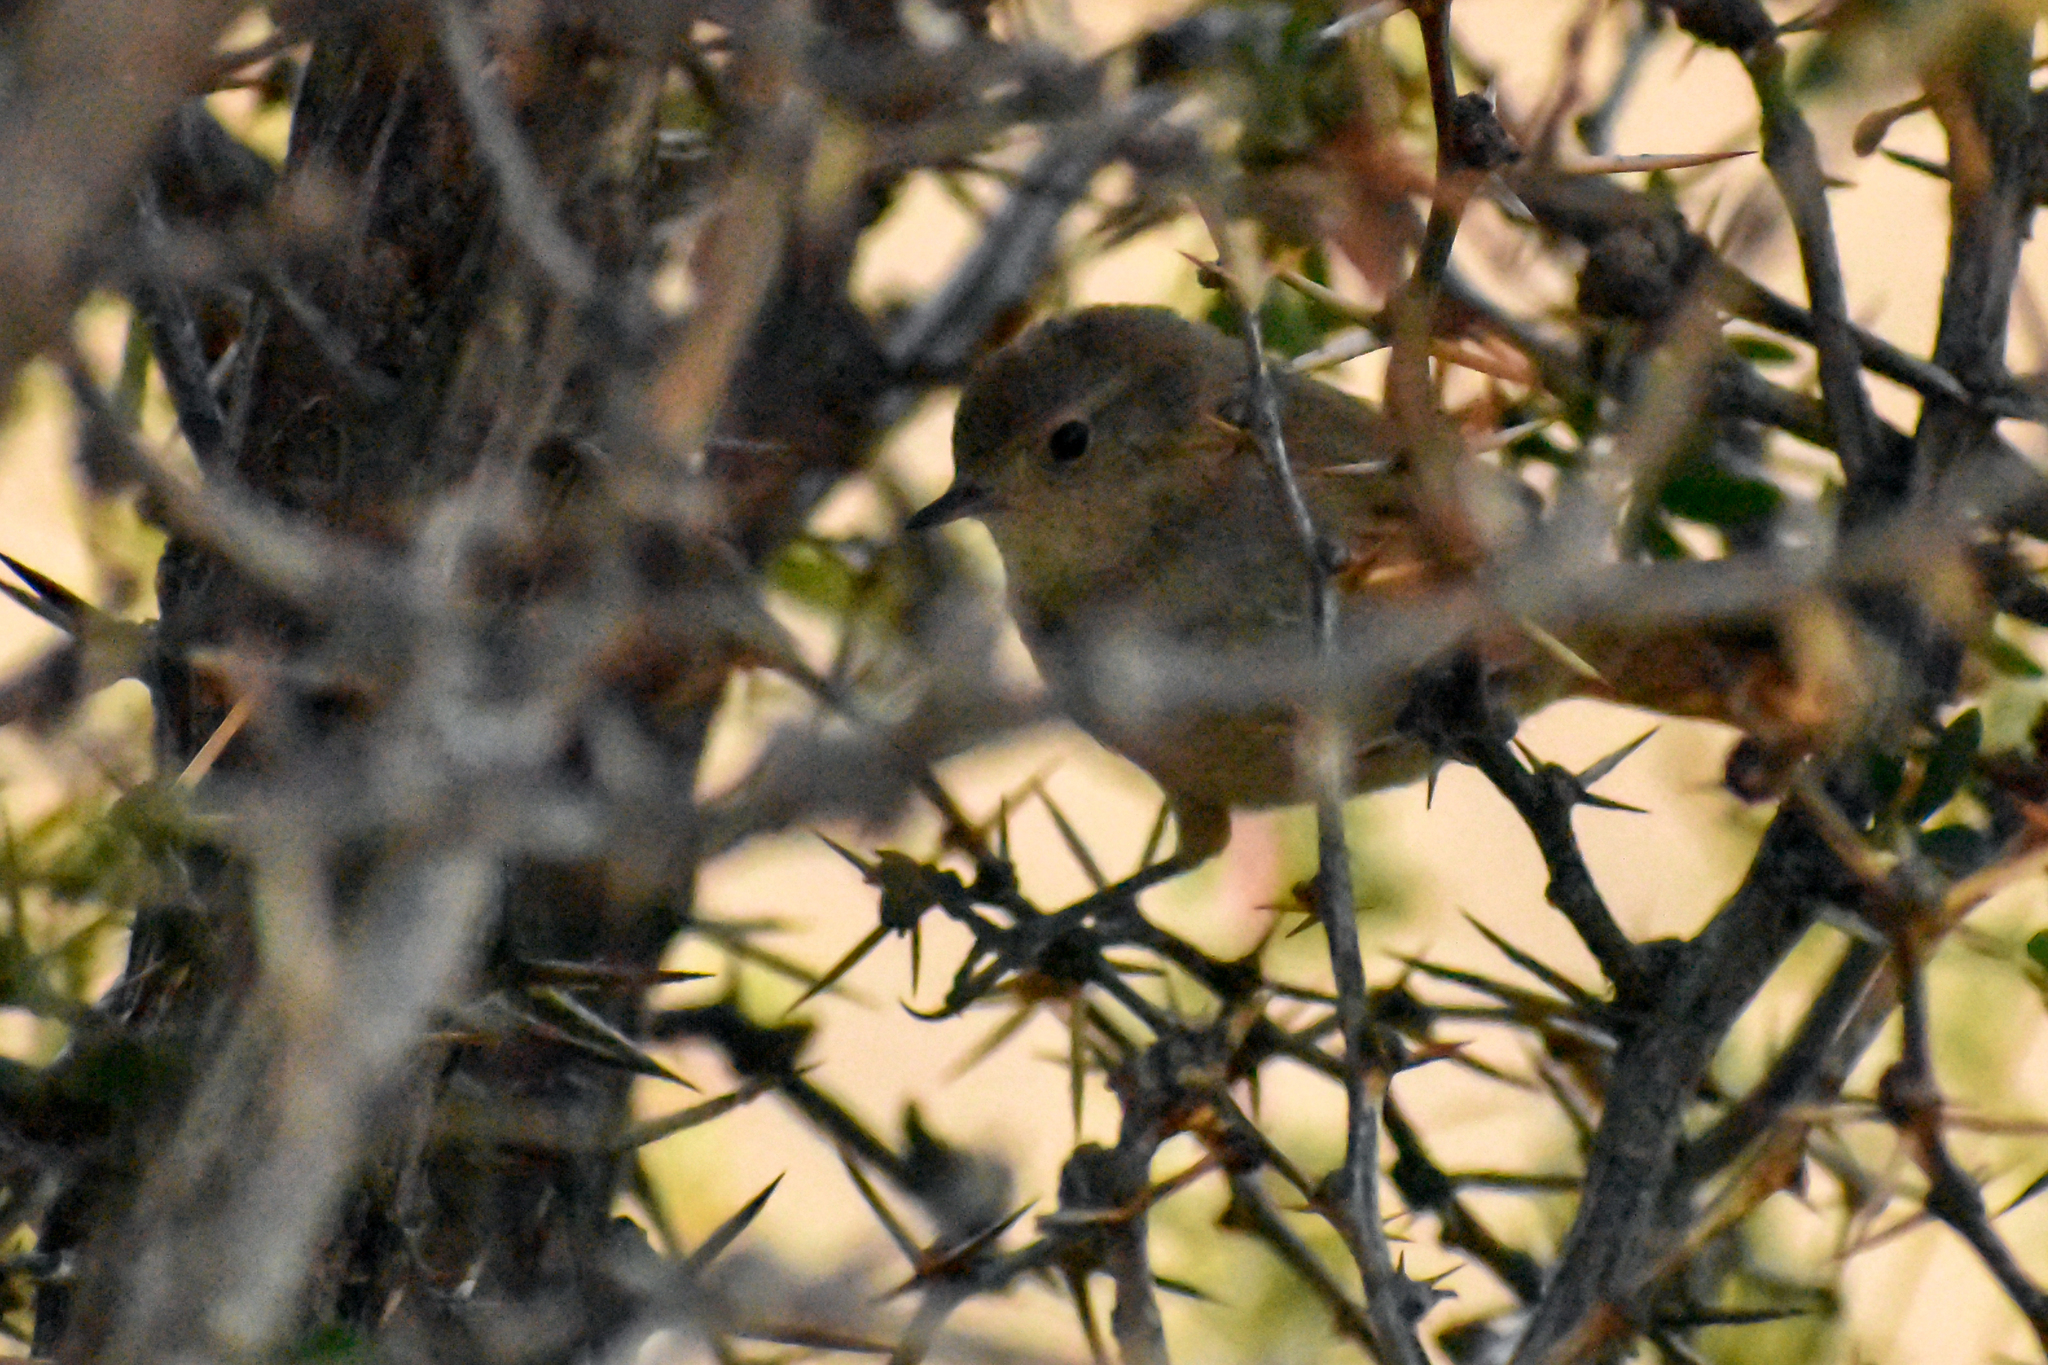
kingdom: Animalia
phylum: Chordata
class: Aves
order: Passeriformes
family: Furnariidae
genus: Asthenes
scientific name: Asthenes pyrrholeuca
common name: Sharp-billed canastero
